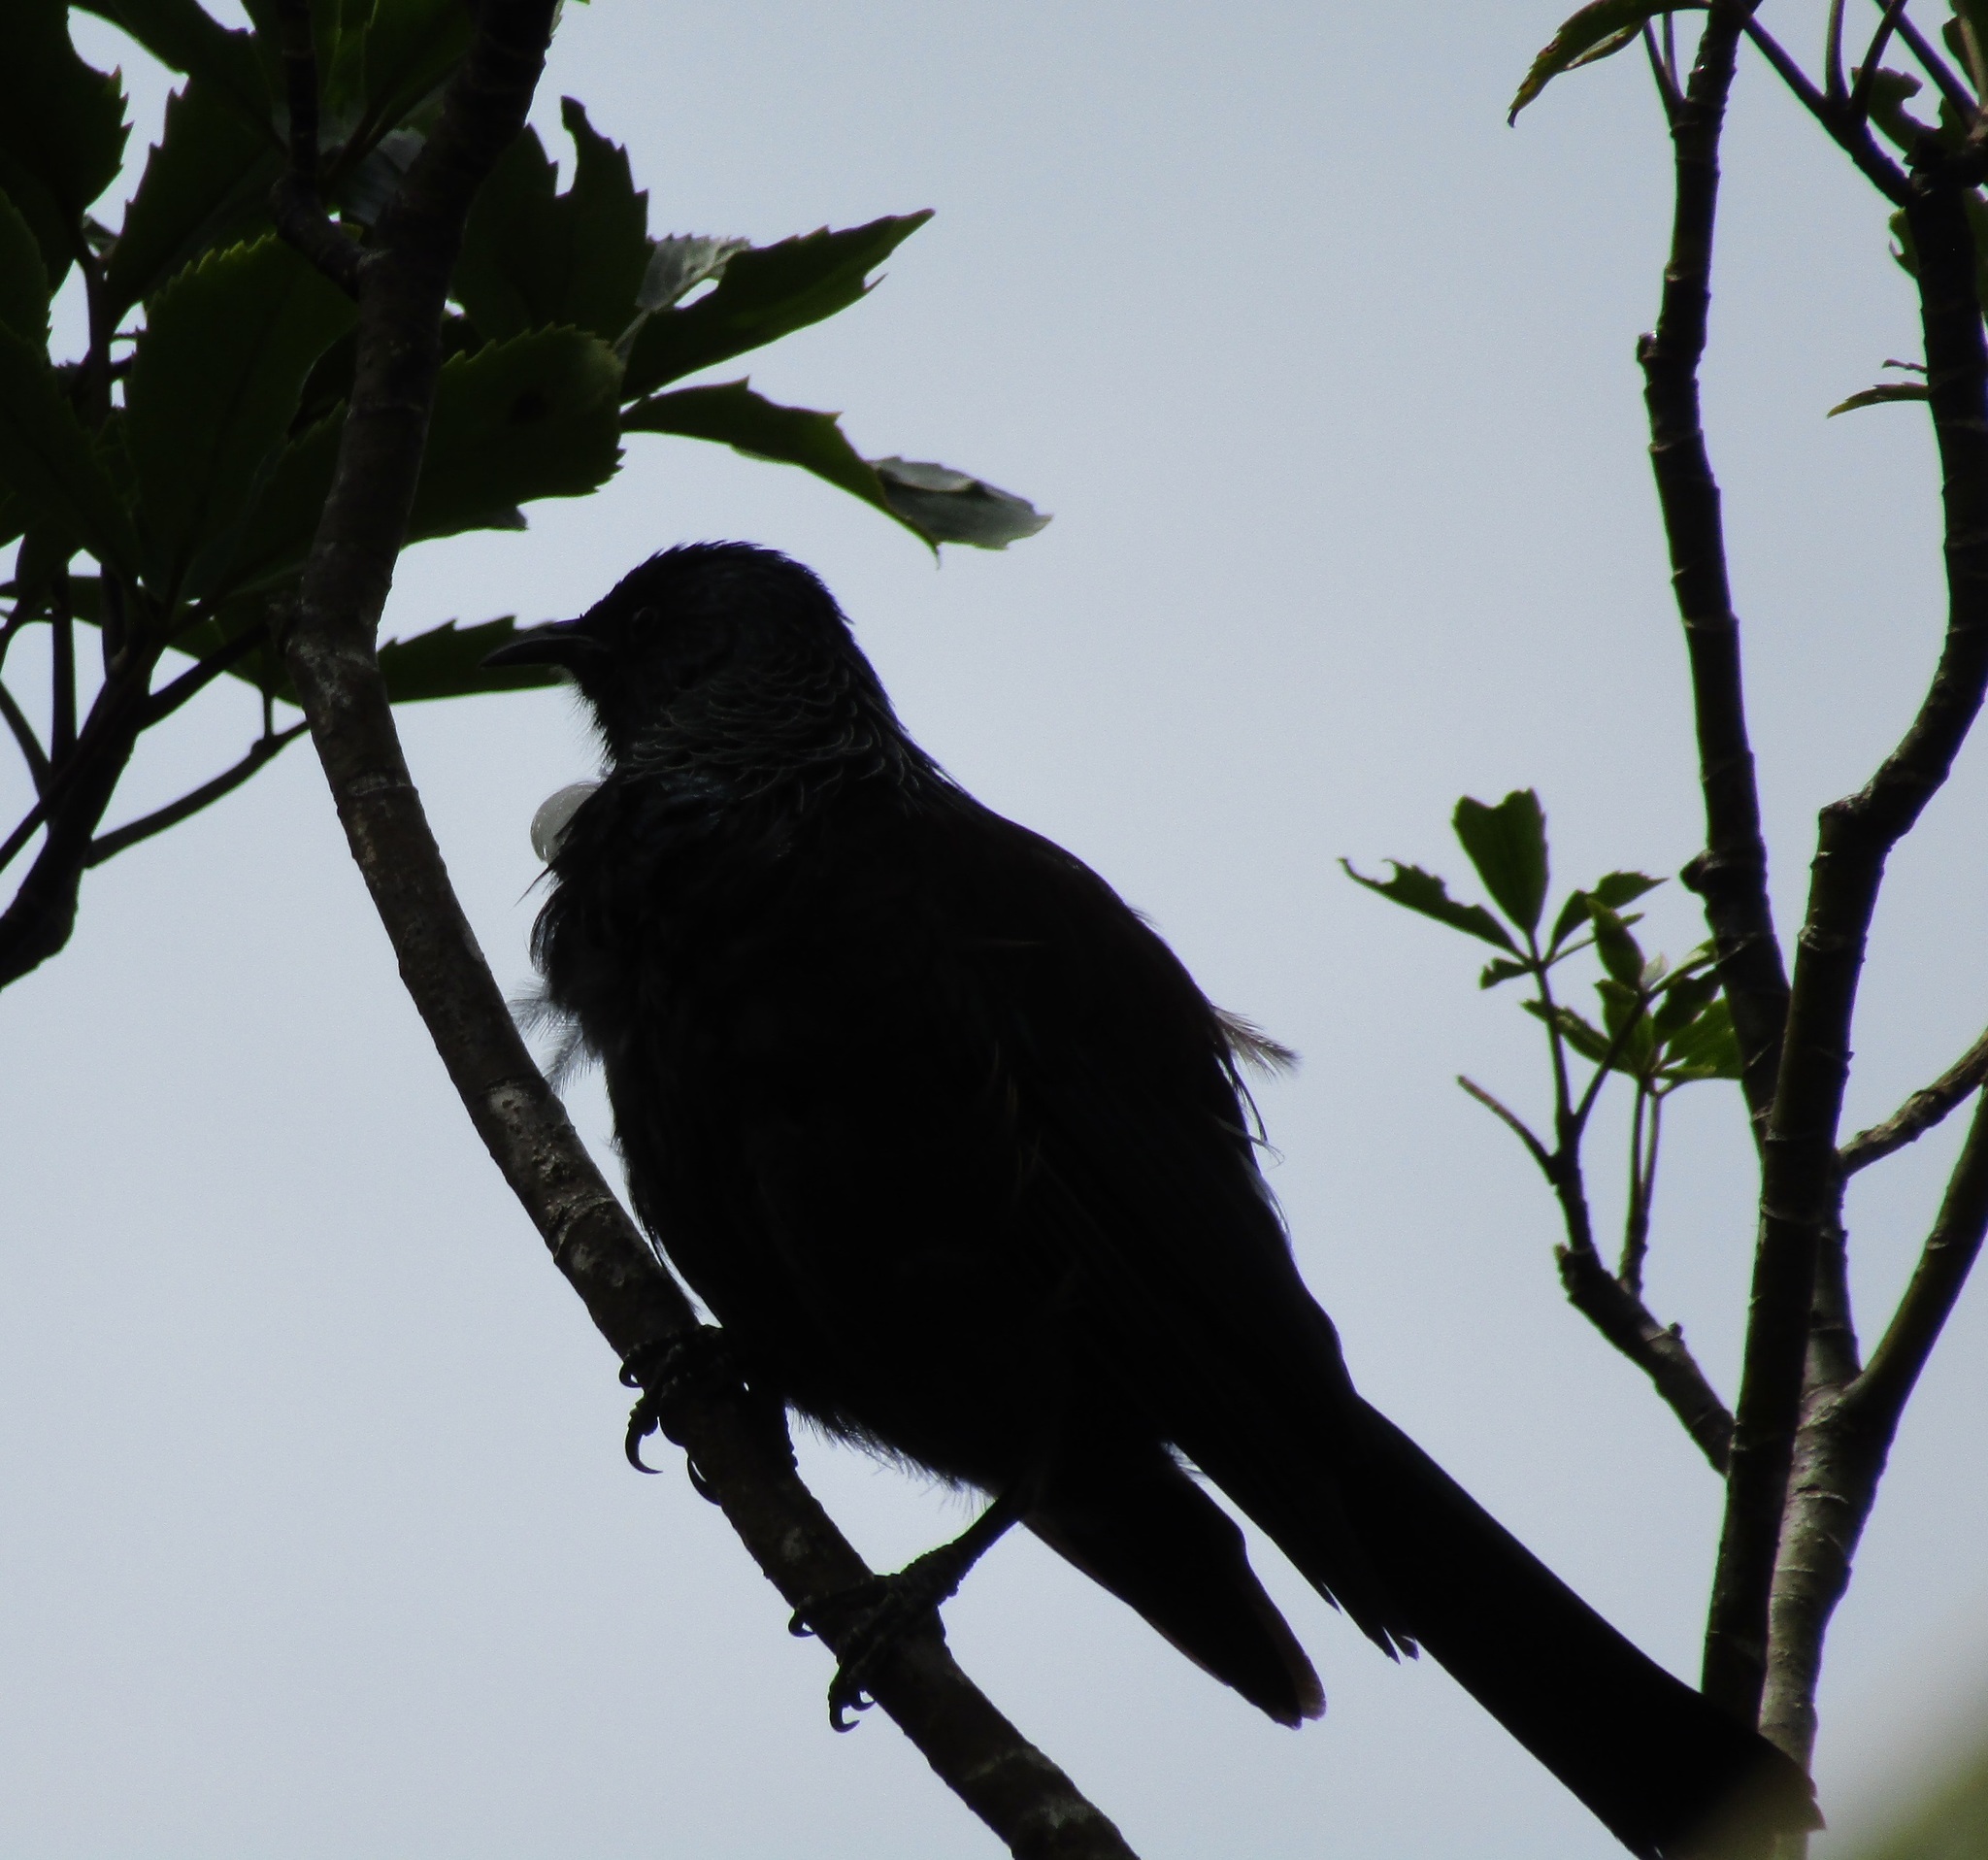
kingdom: Animalia
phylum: Chordata
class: Aves
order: Passeriformes
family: Meliphagidae
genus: Prosthemadera
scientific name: Prosthemadera novaeseelandiae
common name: Tui
